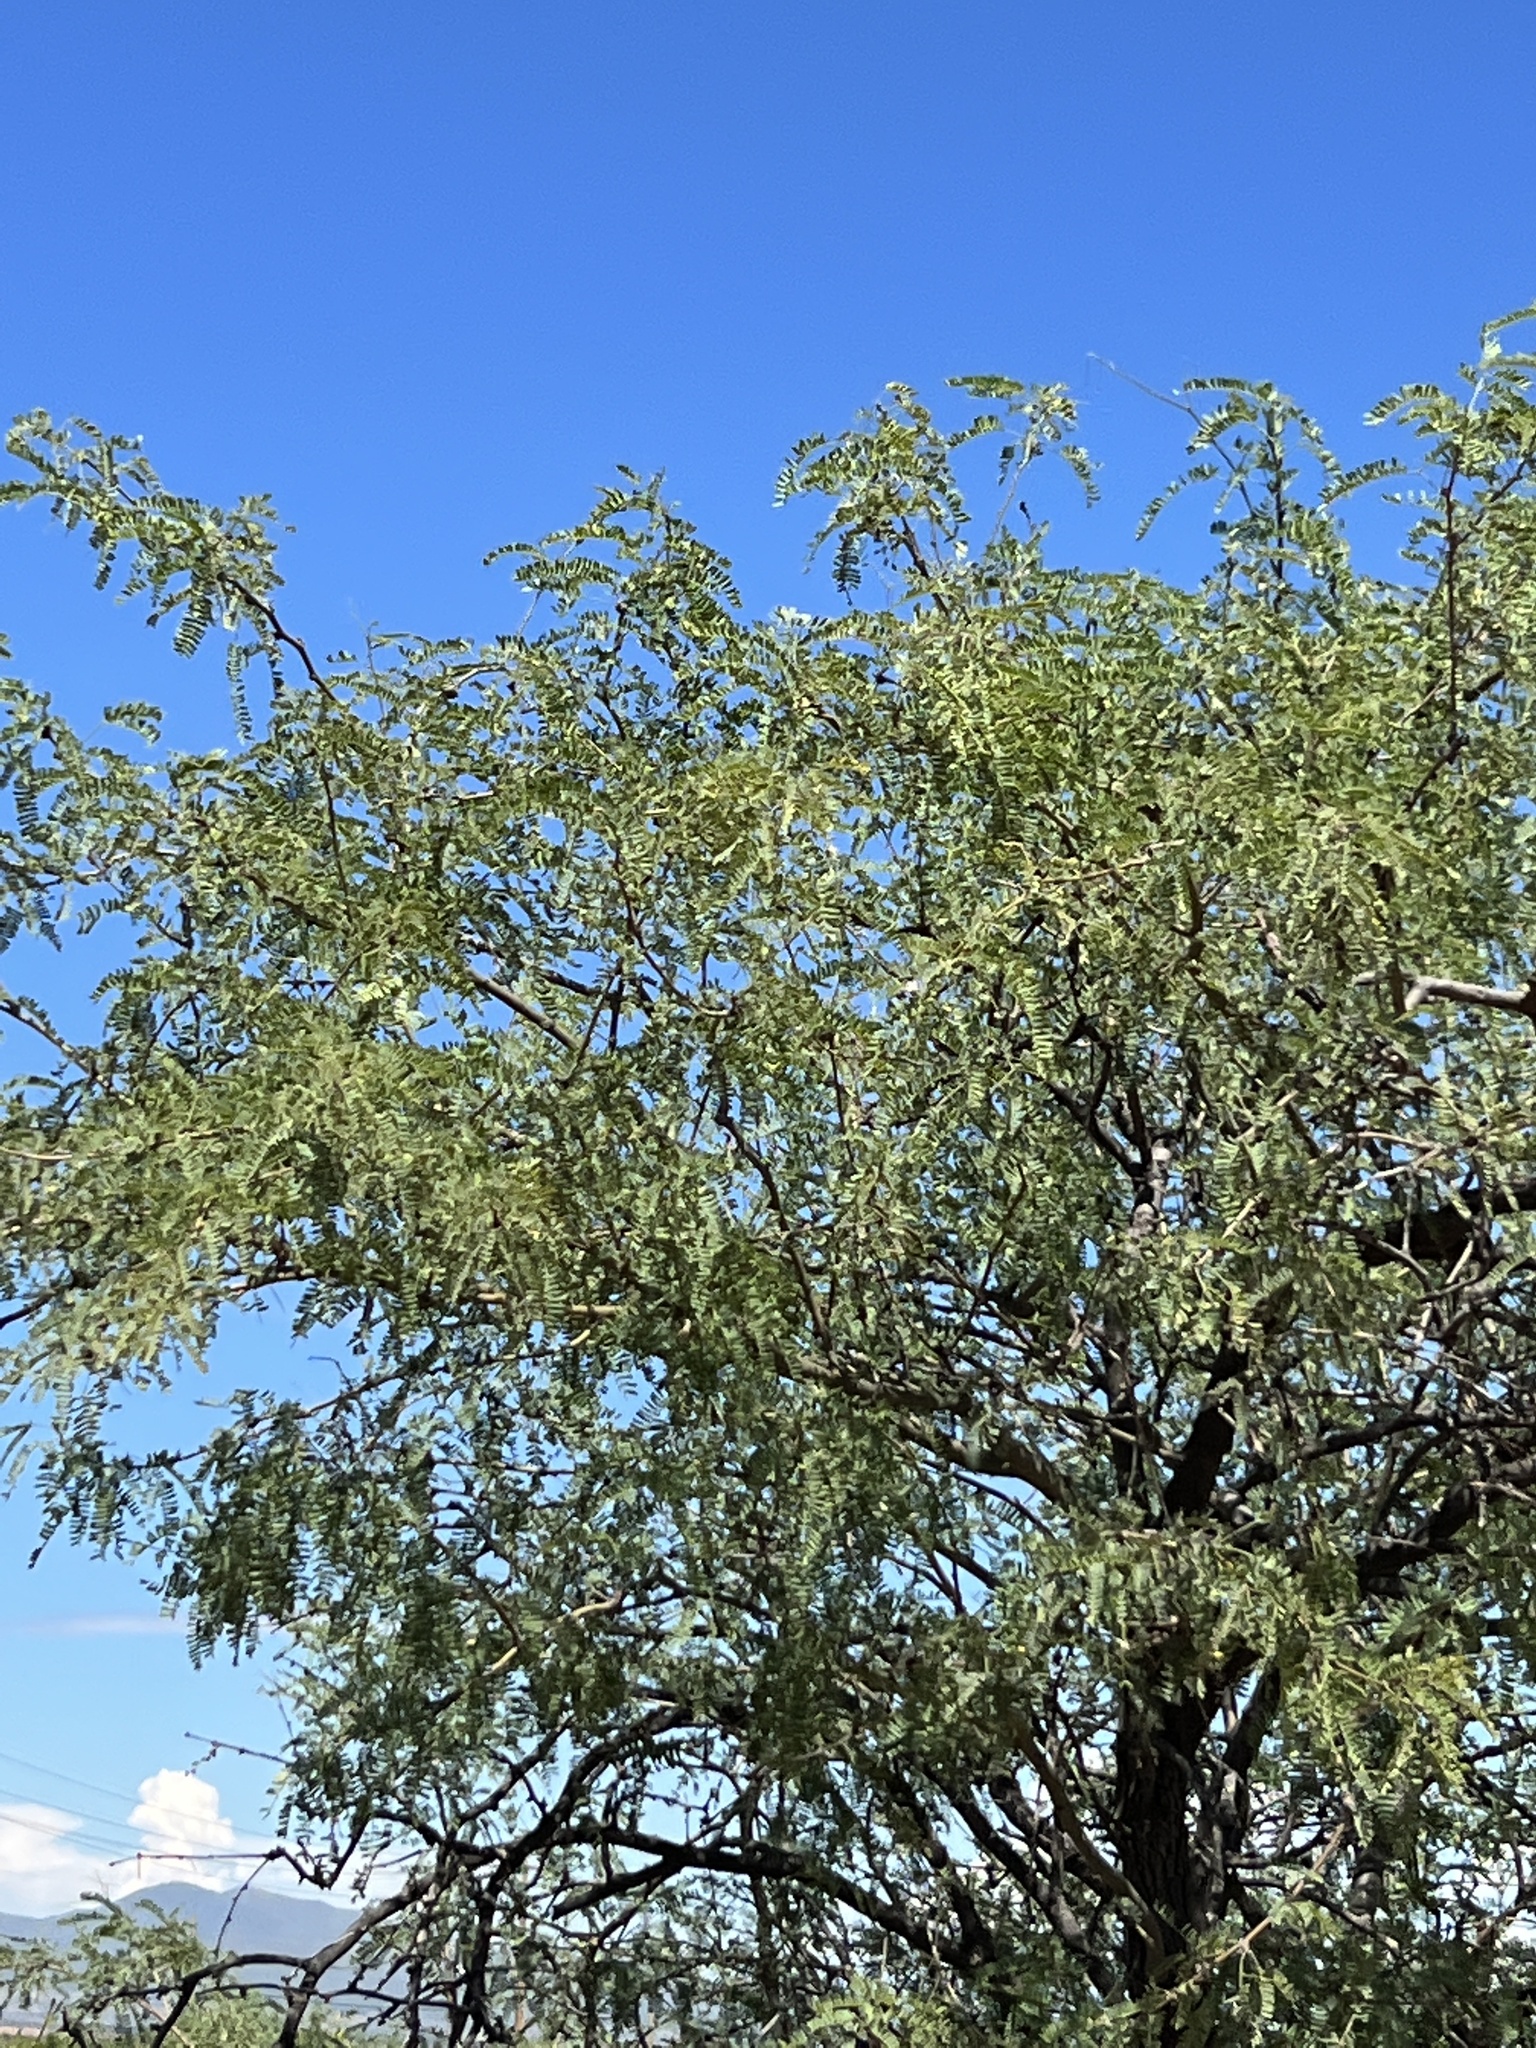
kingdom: Plantae
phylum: Tracheophyta
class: Magnoliopsida
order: Fabales
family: Fabaceae
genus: Prosopis
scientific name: Prosopis velutina
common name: Velvet mesquite
